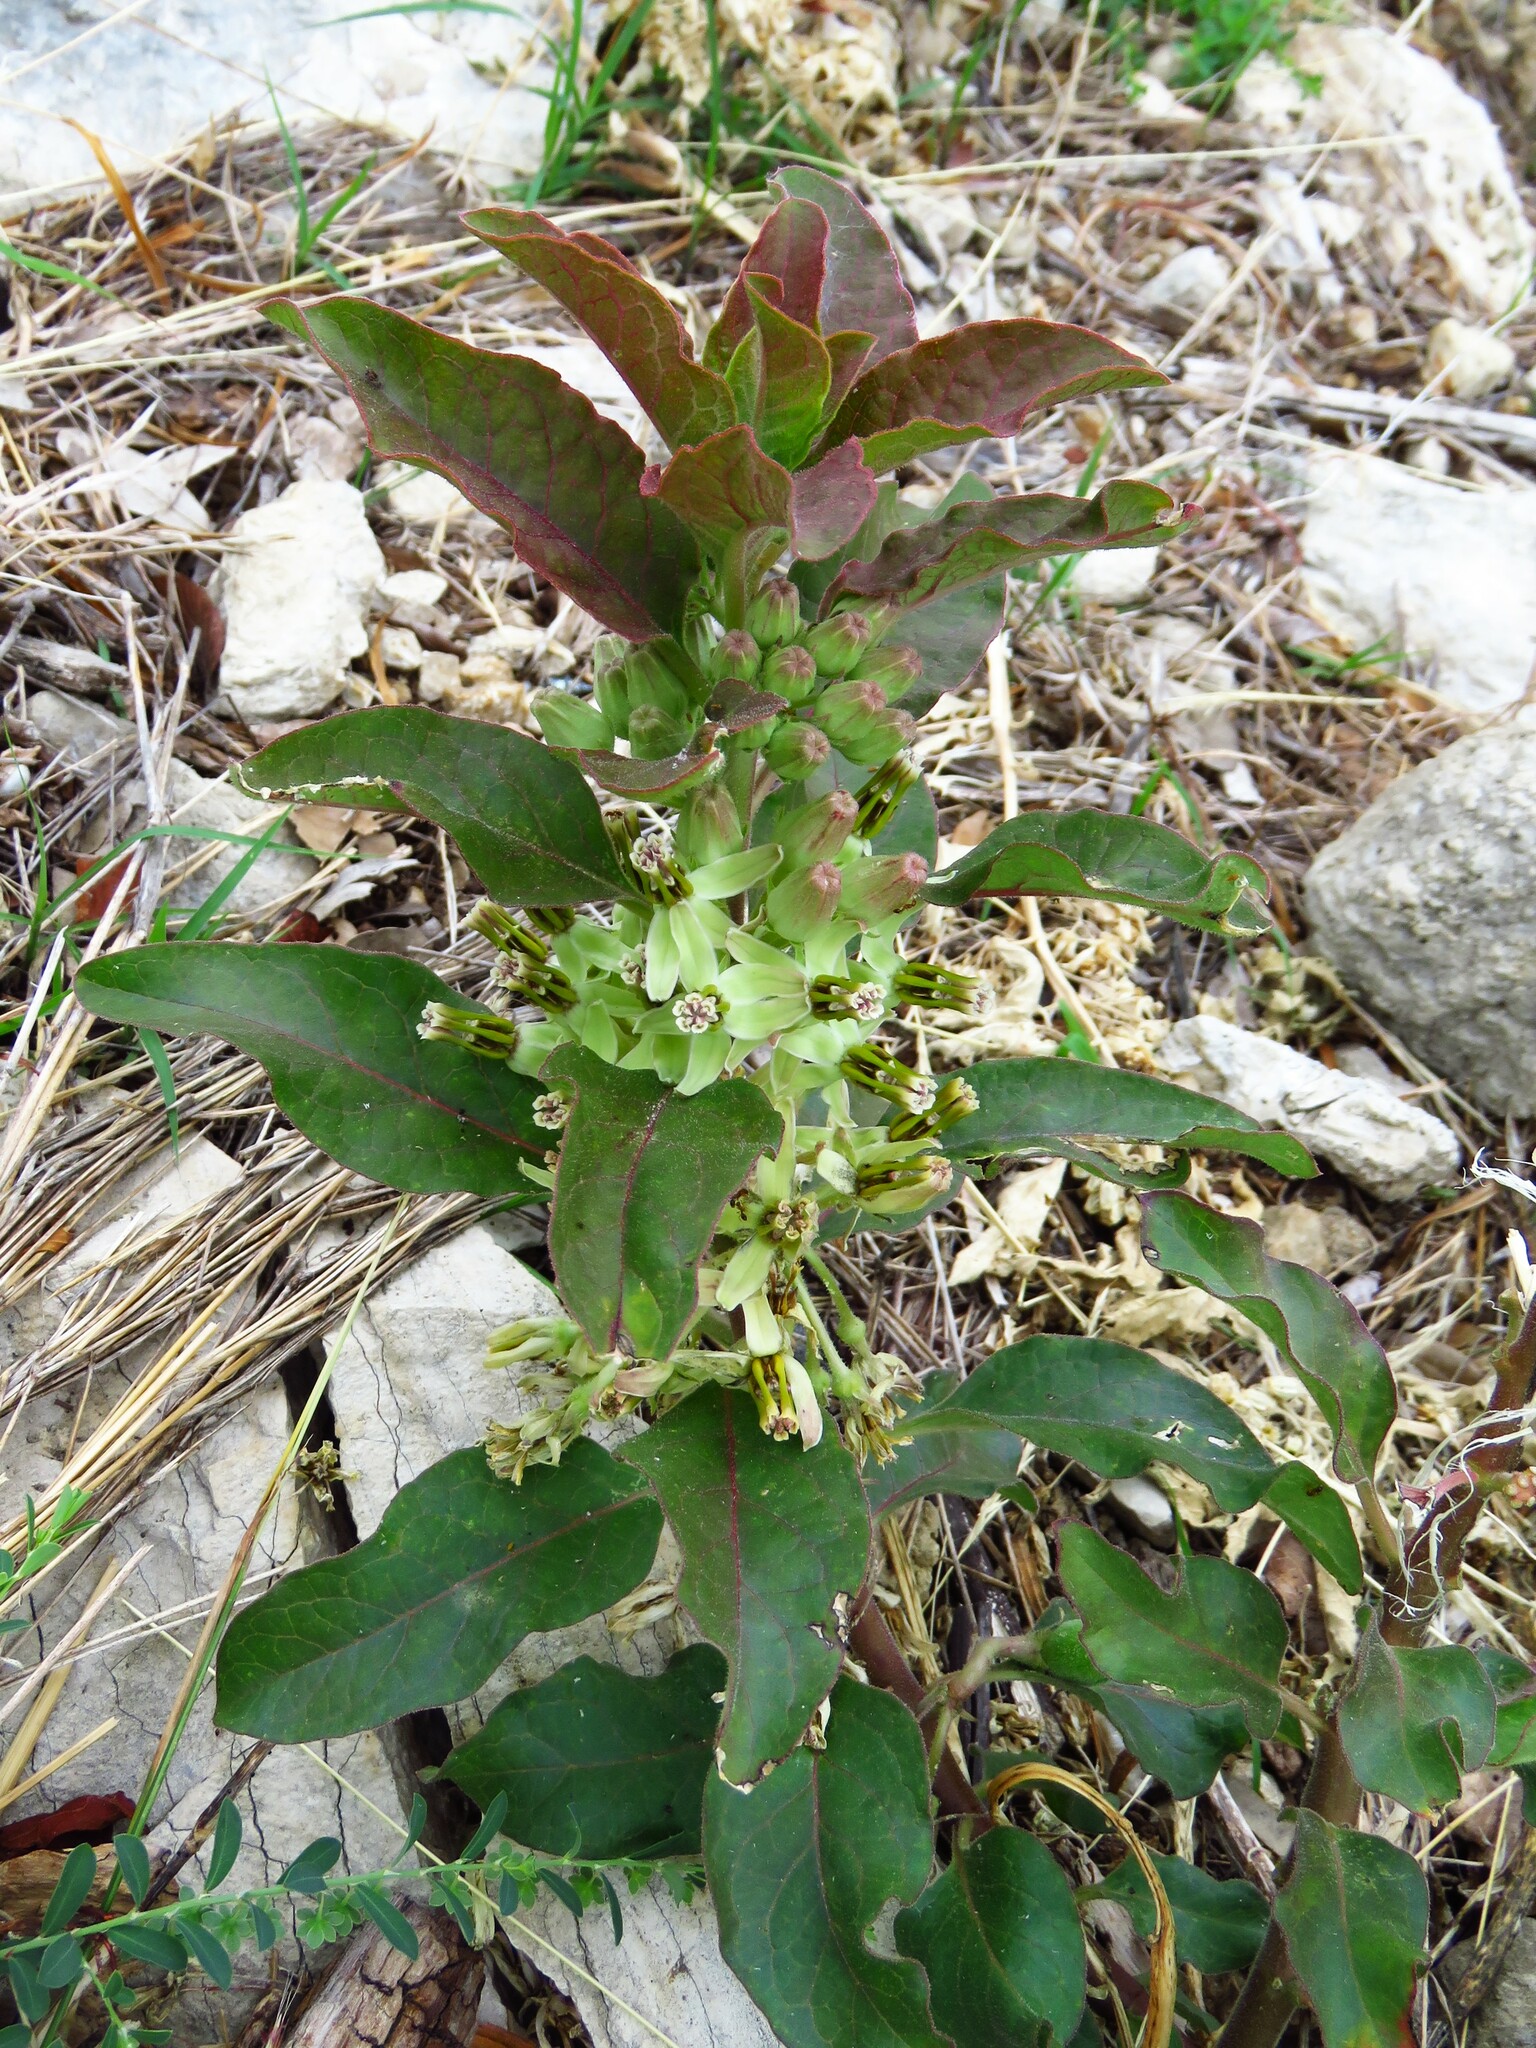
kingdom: Plantae
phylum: Tracheophyta
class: Magnoliopsida
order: Gentianales
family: Apocynaceae
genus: Asclepias
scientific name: Asclepias oenotheroides
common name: Zizotes milkweed
